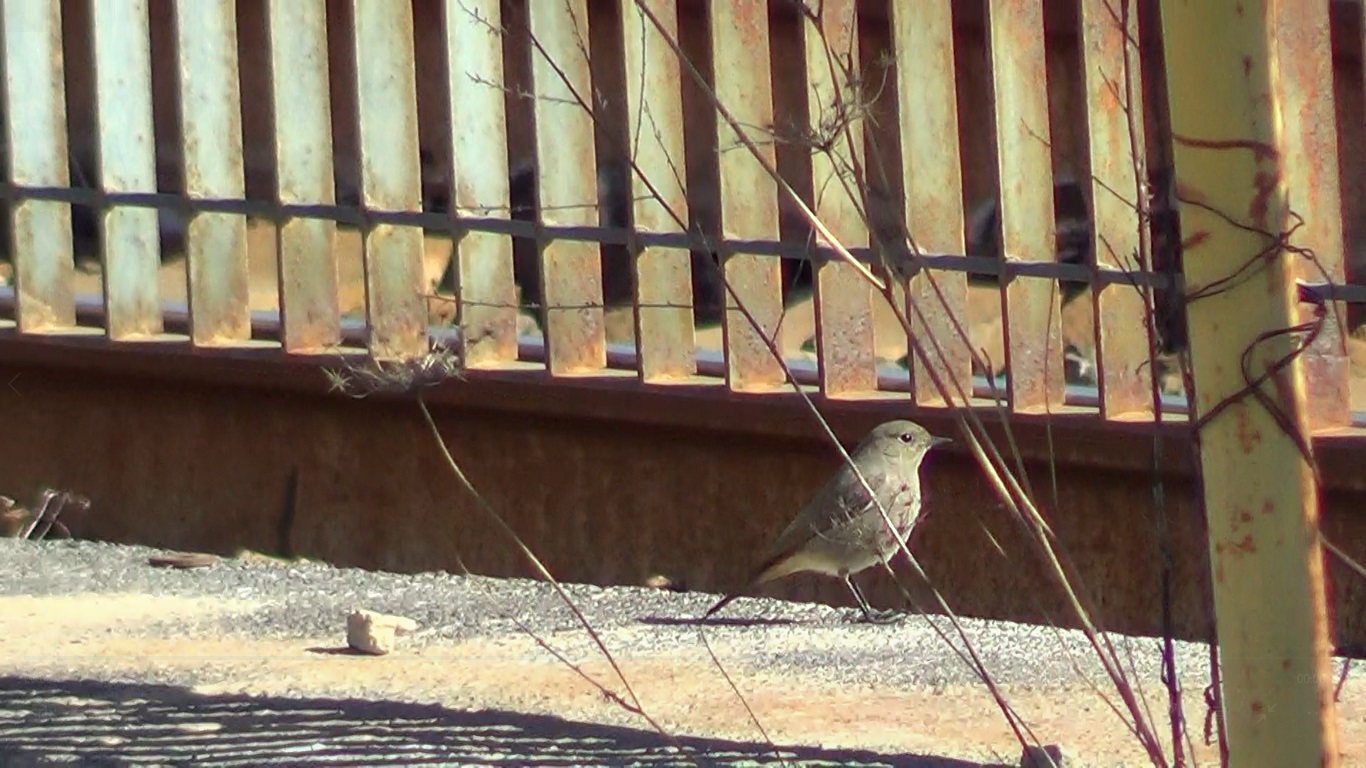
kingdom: Animalia
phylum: Chordata
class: Aves
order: Passeriformes
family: Muscicapidae
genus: Phoenicurus
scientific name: Phoenicurus ochruros
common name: Black redstart
